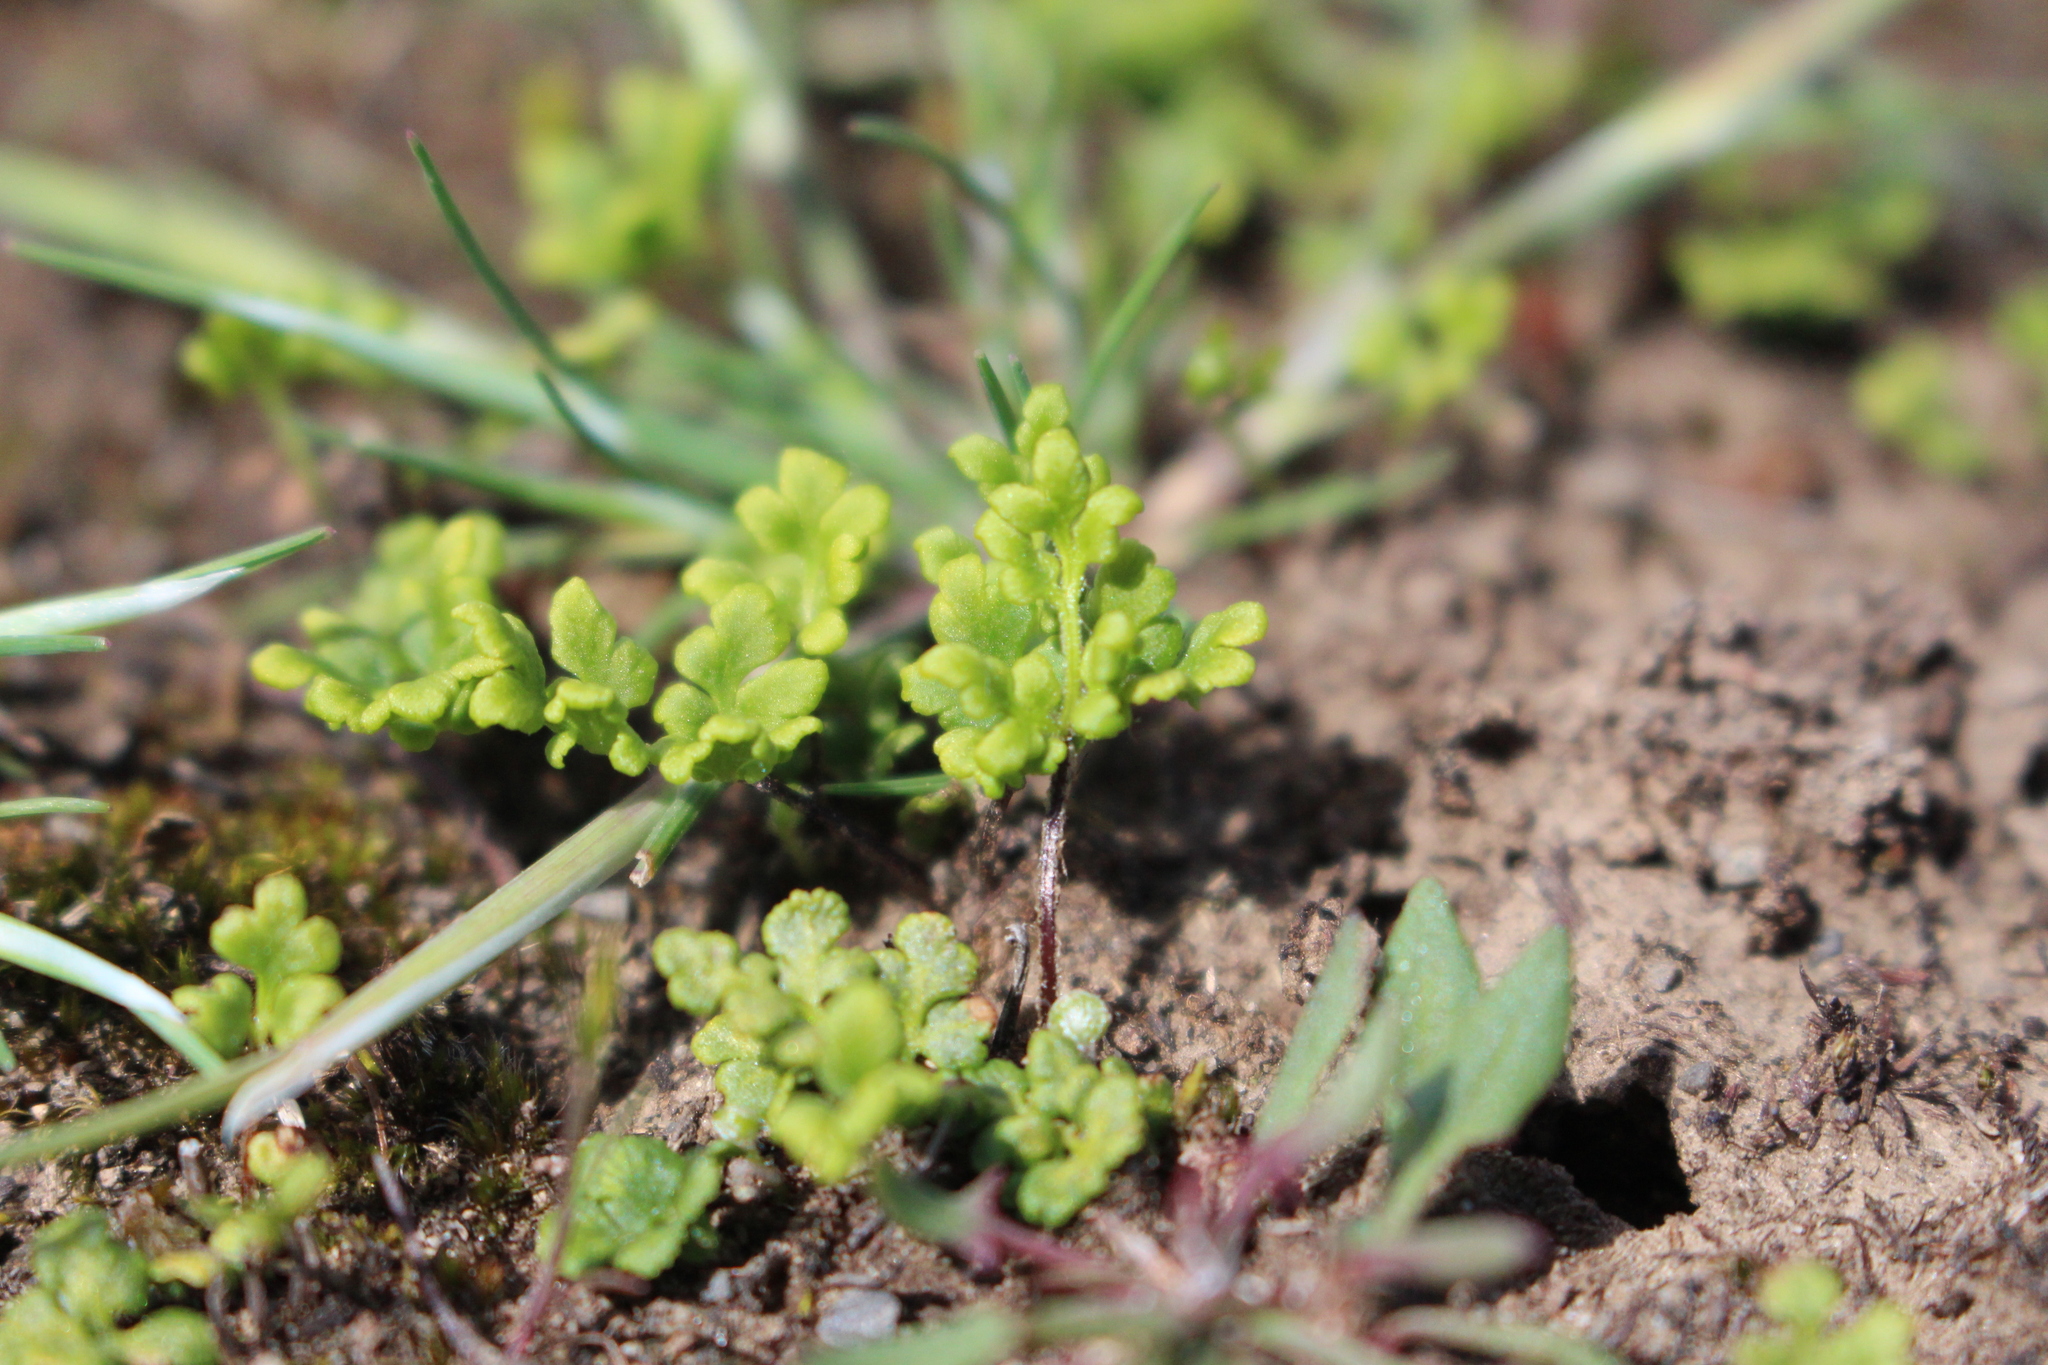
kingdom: Plantae
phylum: Tracheophyta
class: Polypodiopsida
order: Polypodiales
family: Pteridaceae
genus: Cheilanthes
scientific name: Cheilanthes sieberi
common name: Mulga fern
